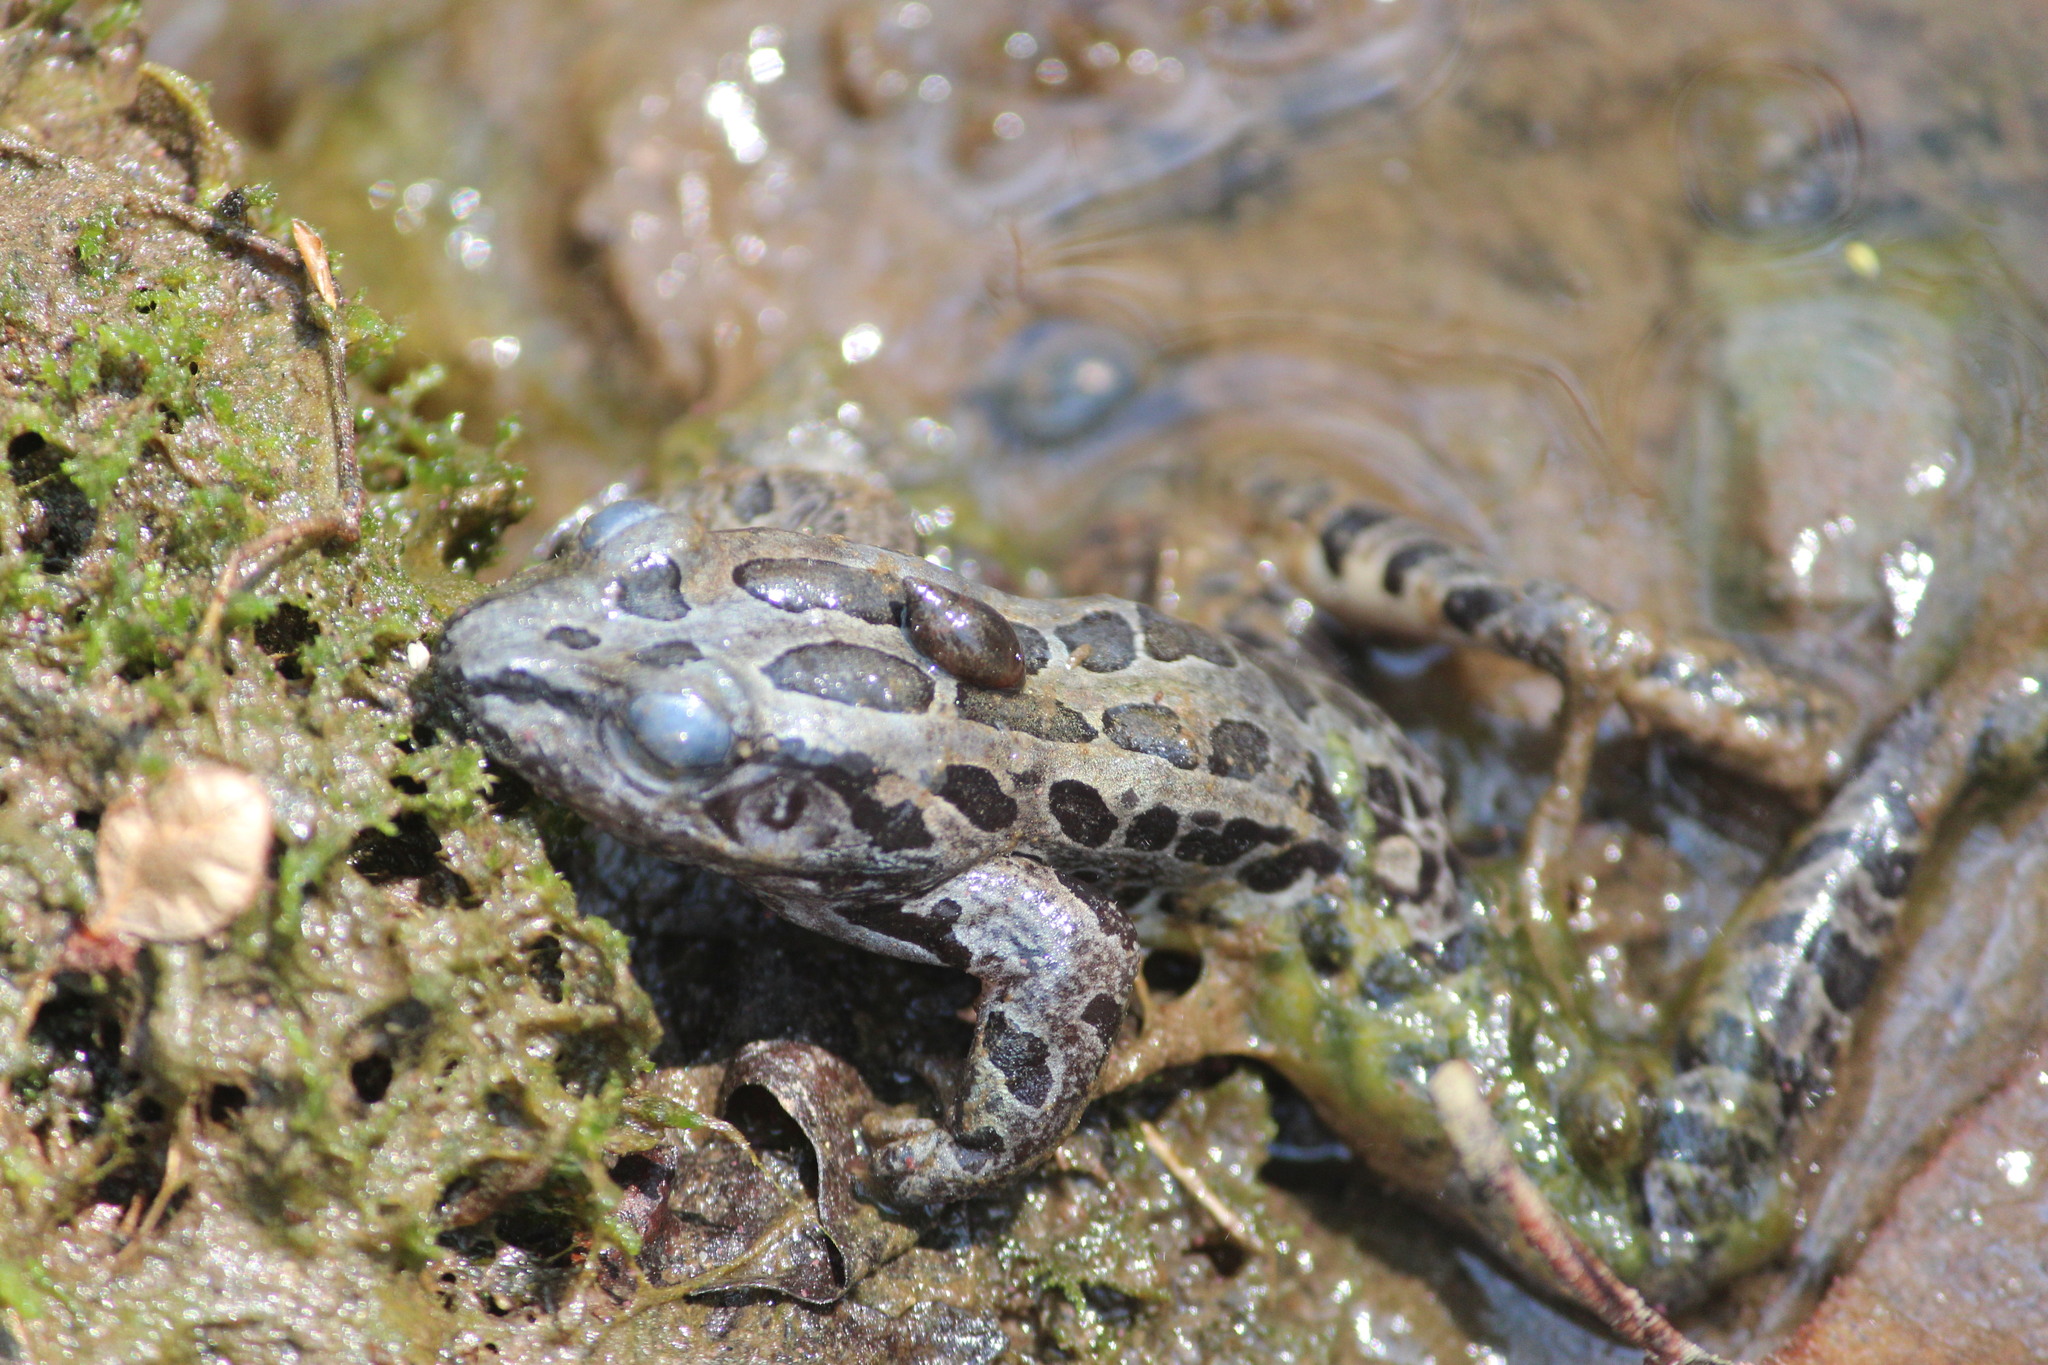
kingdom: Animalia
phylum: Chordata
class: Amphibia
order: Anura
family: Ranidae
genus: Lithobates
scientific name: Lithobates palustris
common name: Pickerel frog
